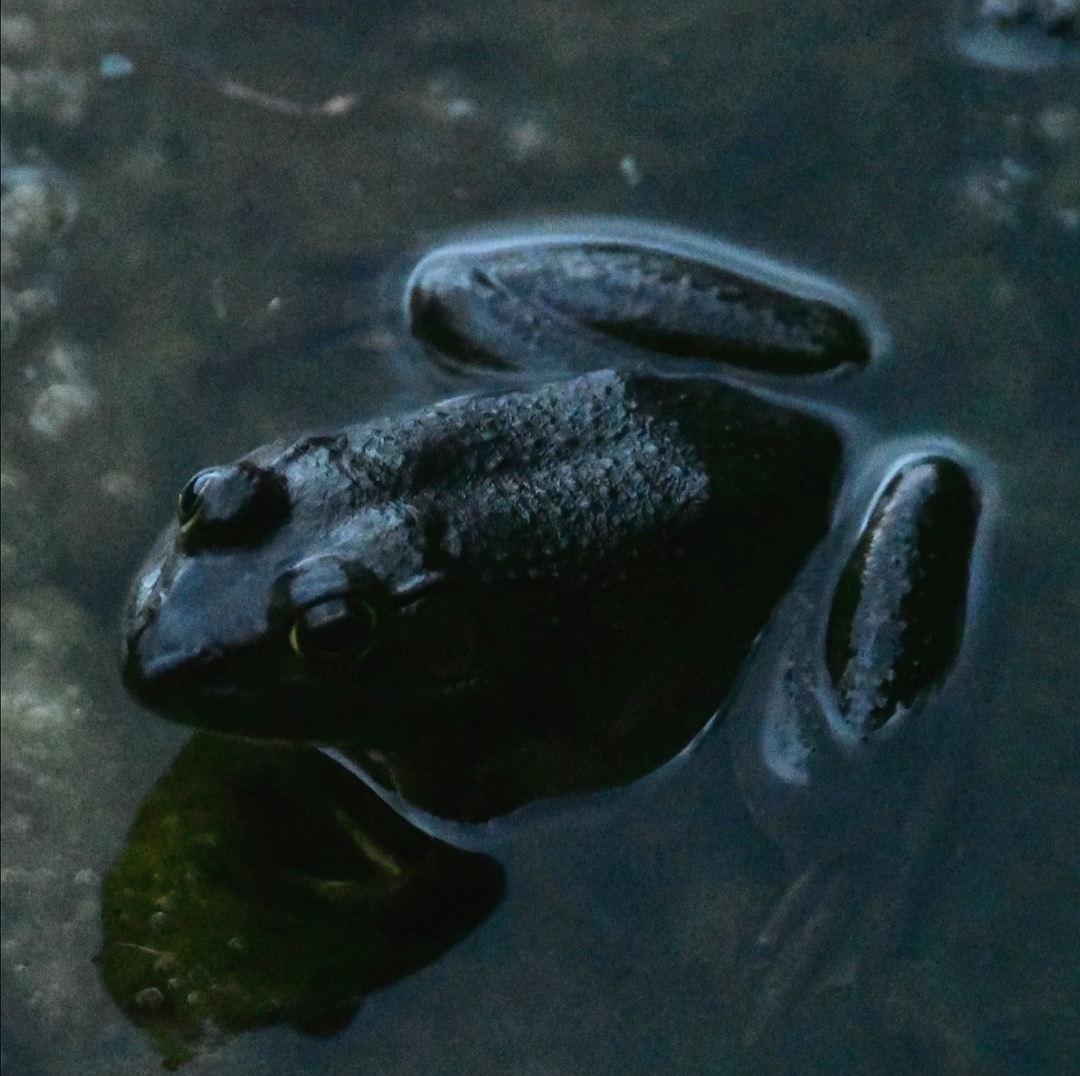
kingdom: Animalia
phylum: Chordata
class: Amphibia
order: Anura
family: Ranidae
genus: Lithobates
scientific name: Lithobates catesbeianus
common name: American bullfrog
